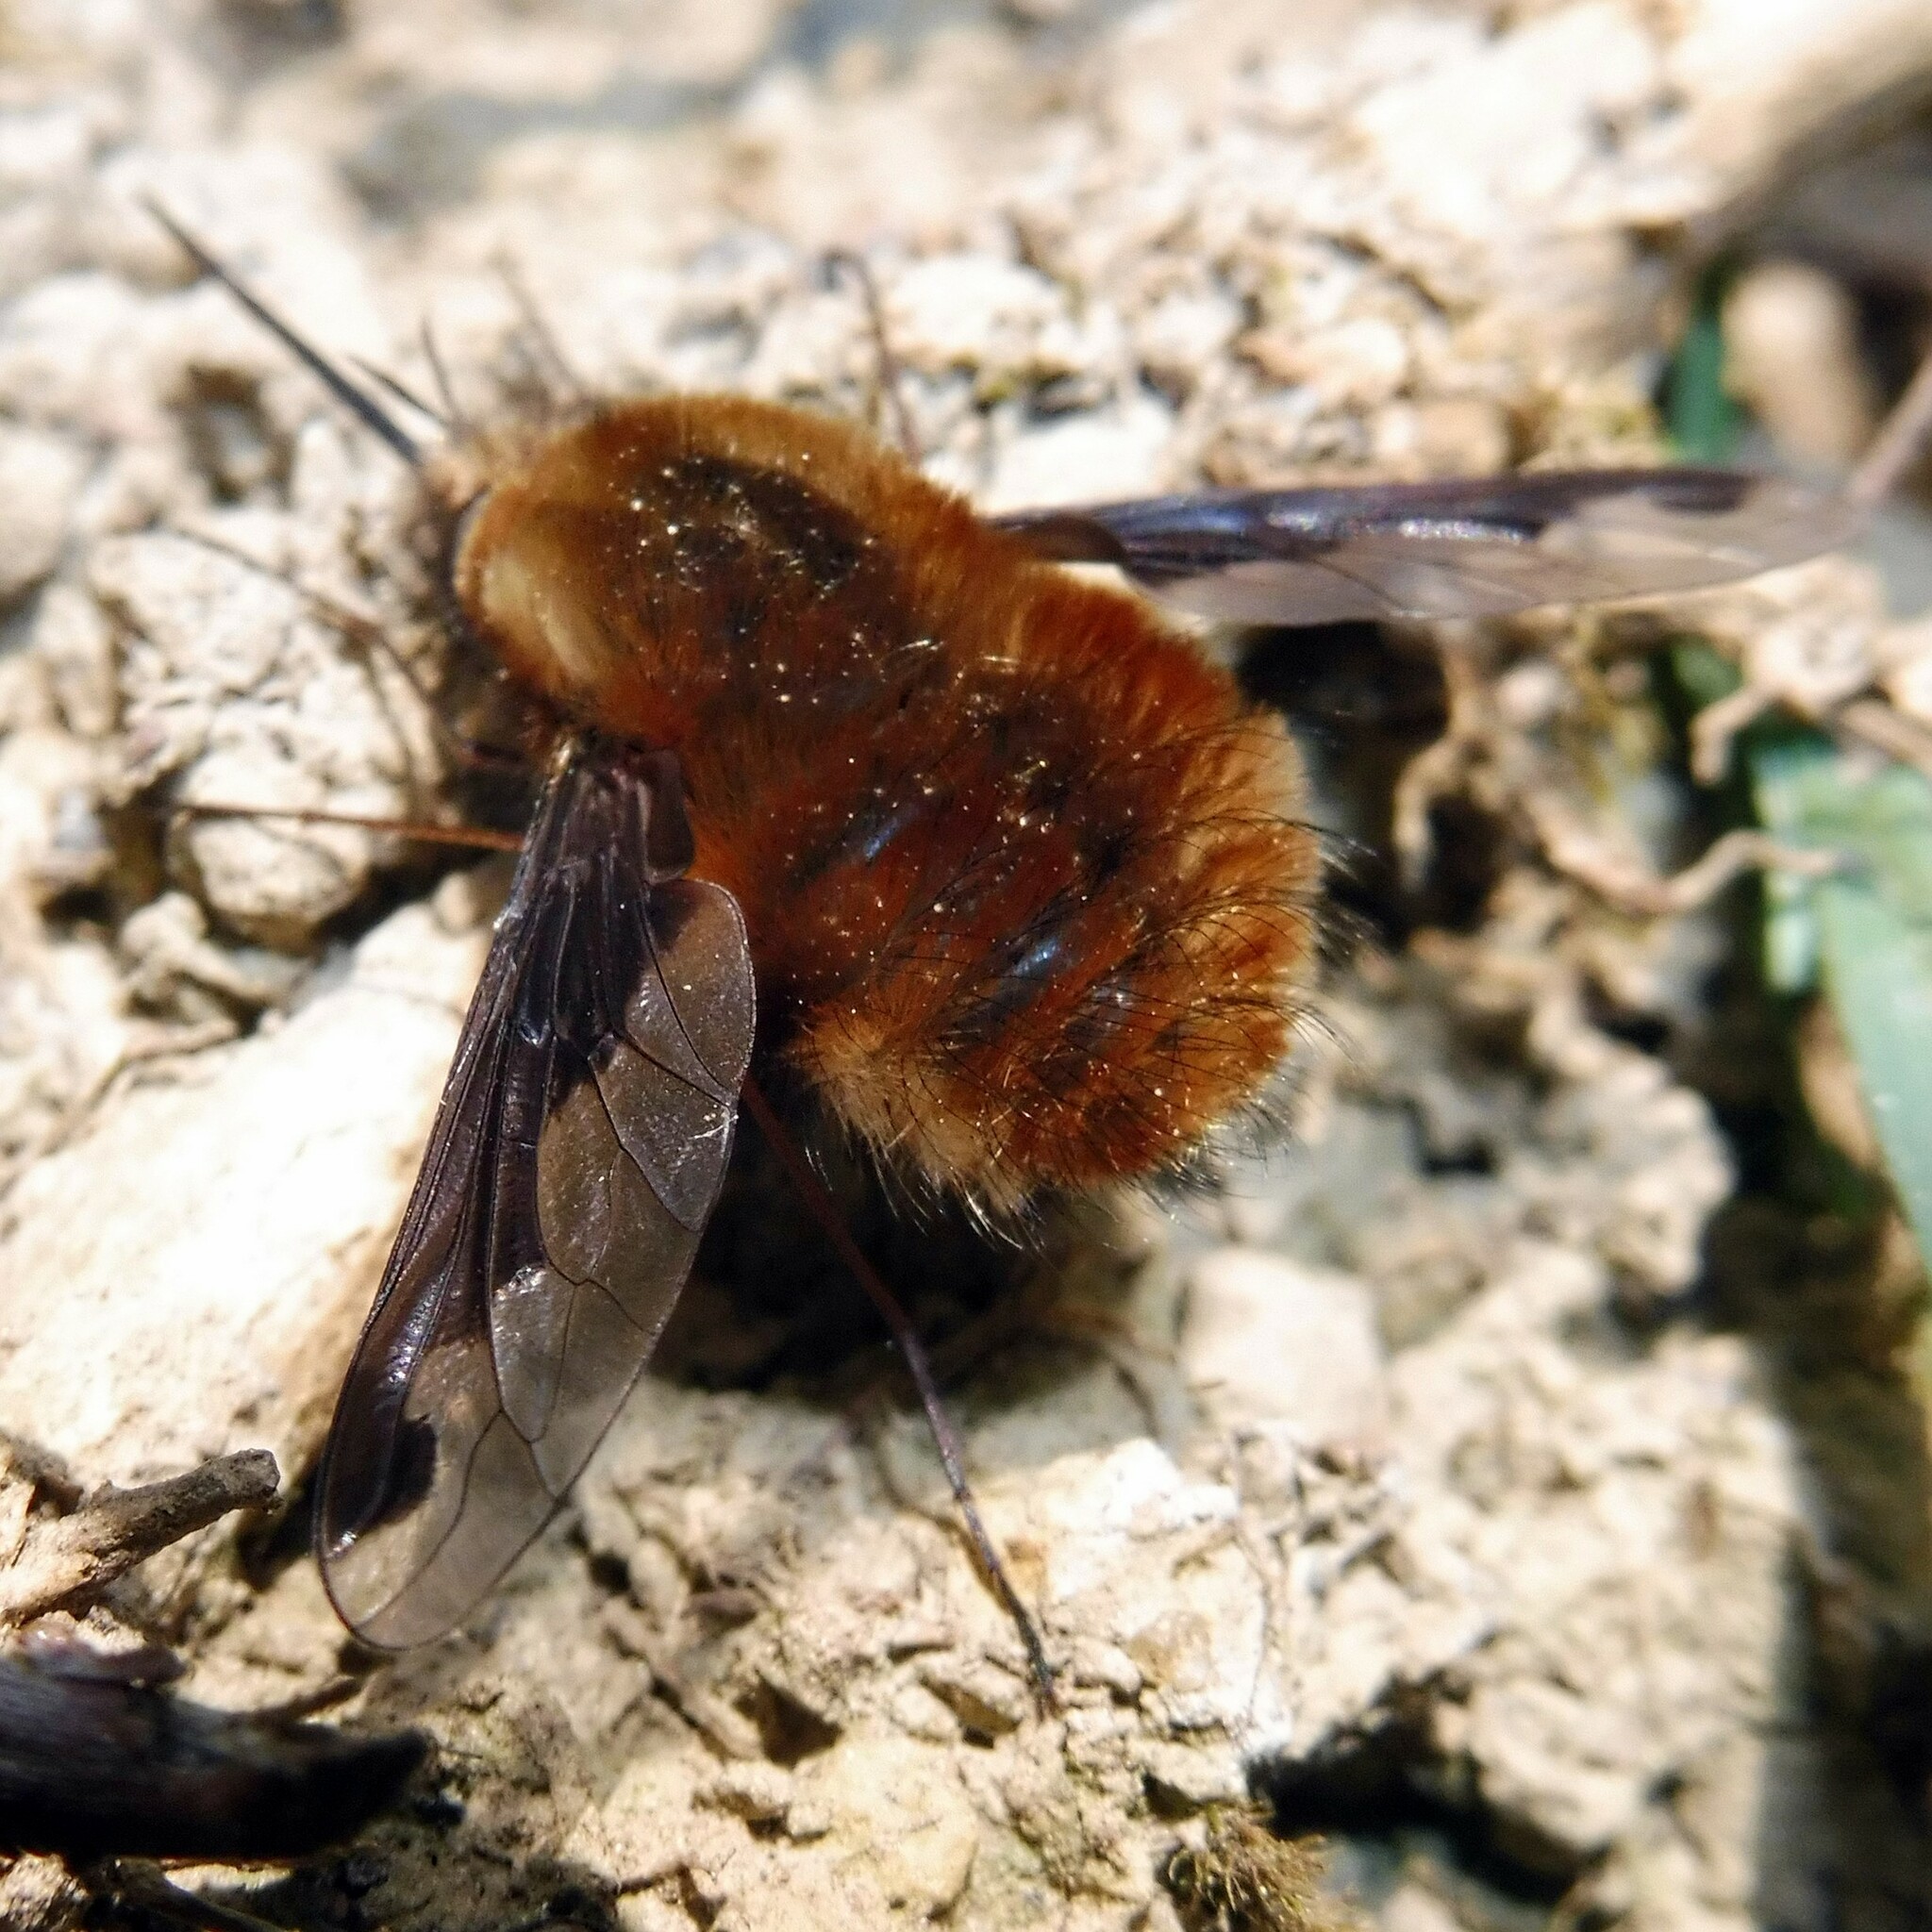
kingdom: Animalia
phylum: Arthropoda
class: Insecta
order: Diptera
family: Bombyliidae
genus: Bombylius
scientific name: Bombylius major
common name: Bee fly
